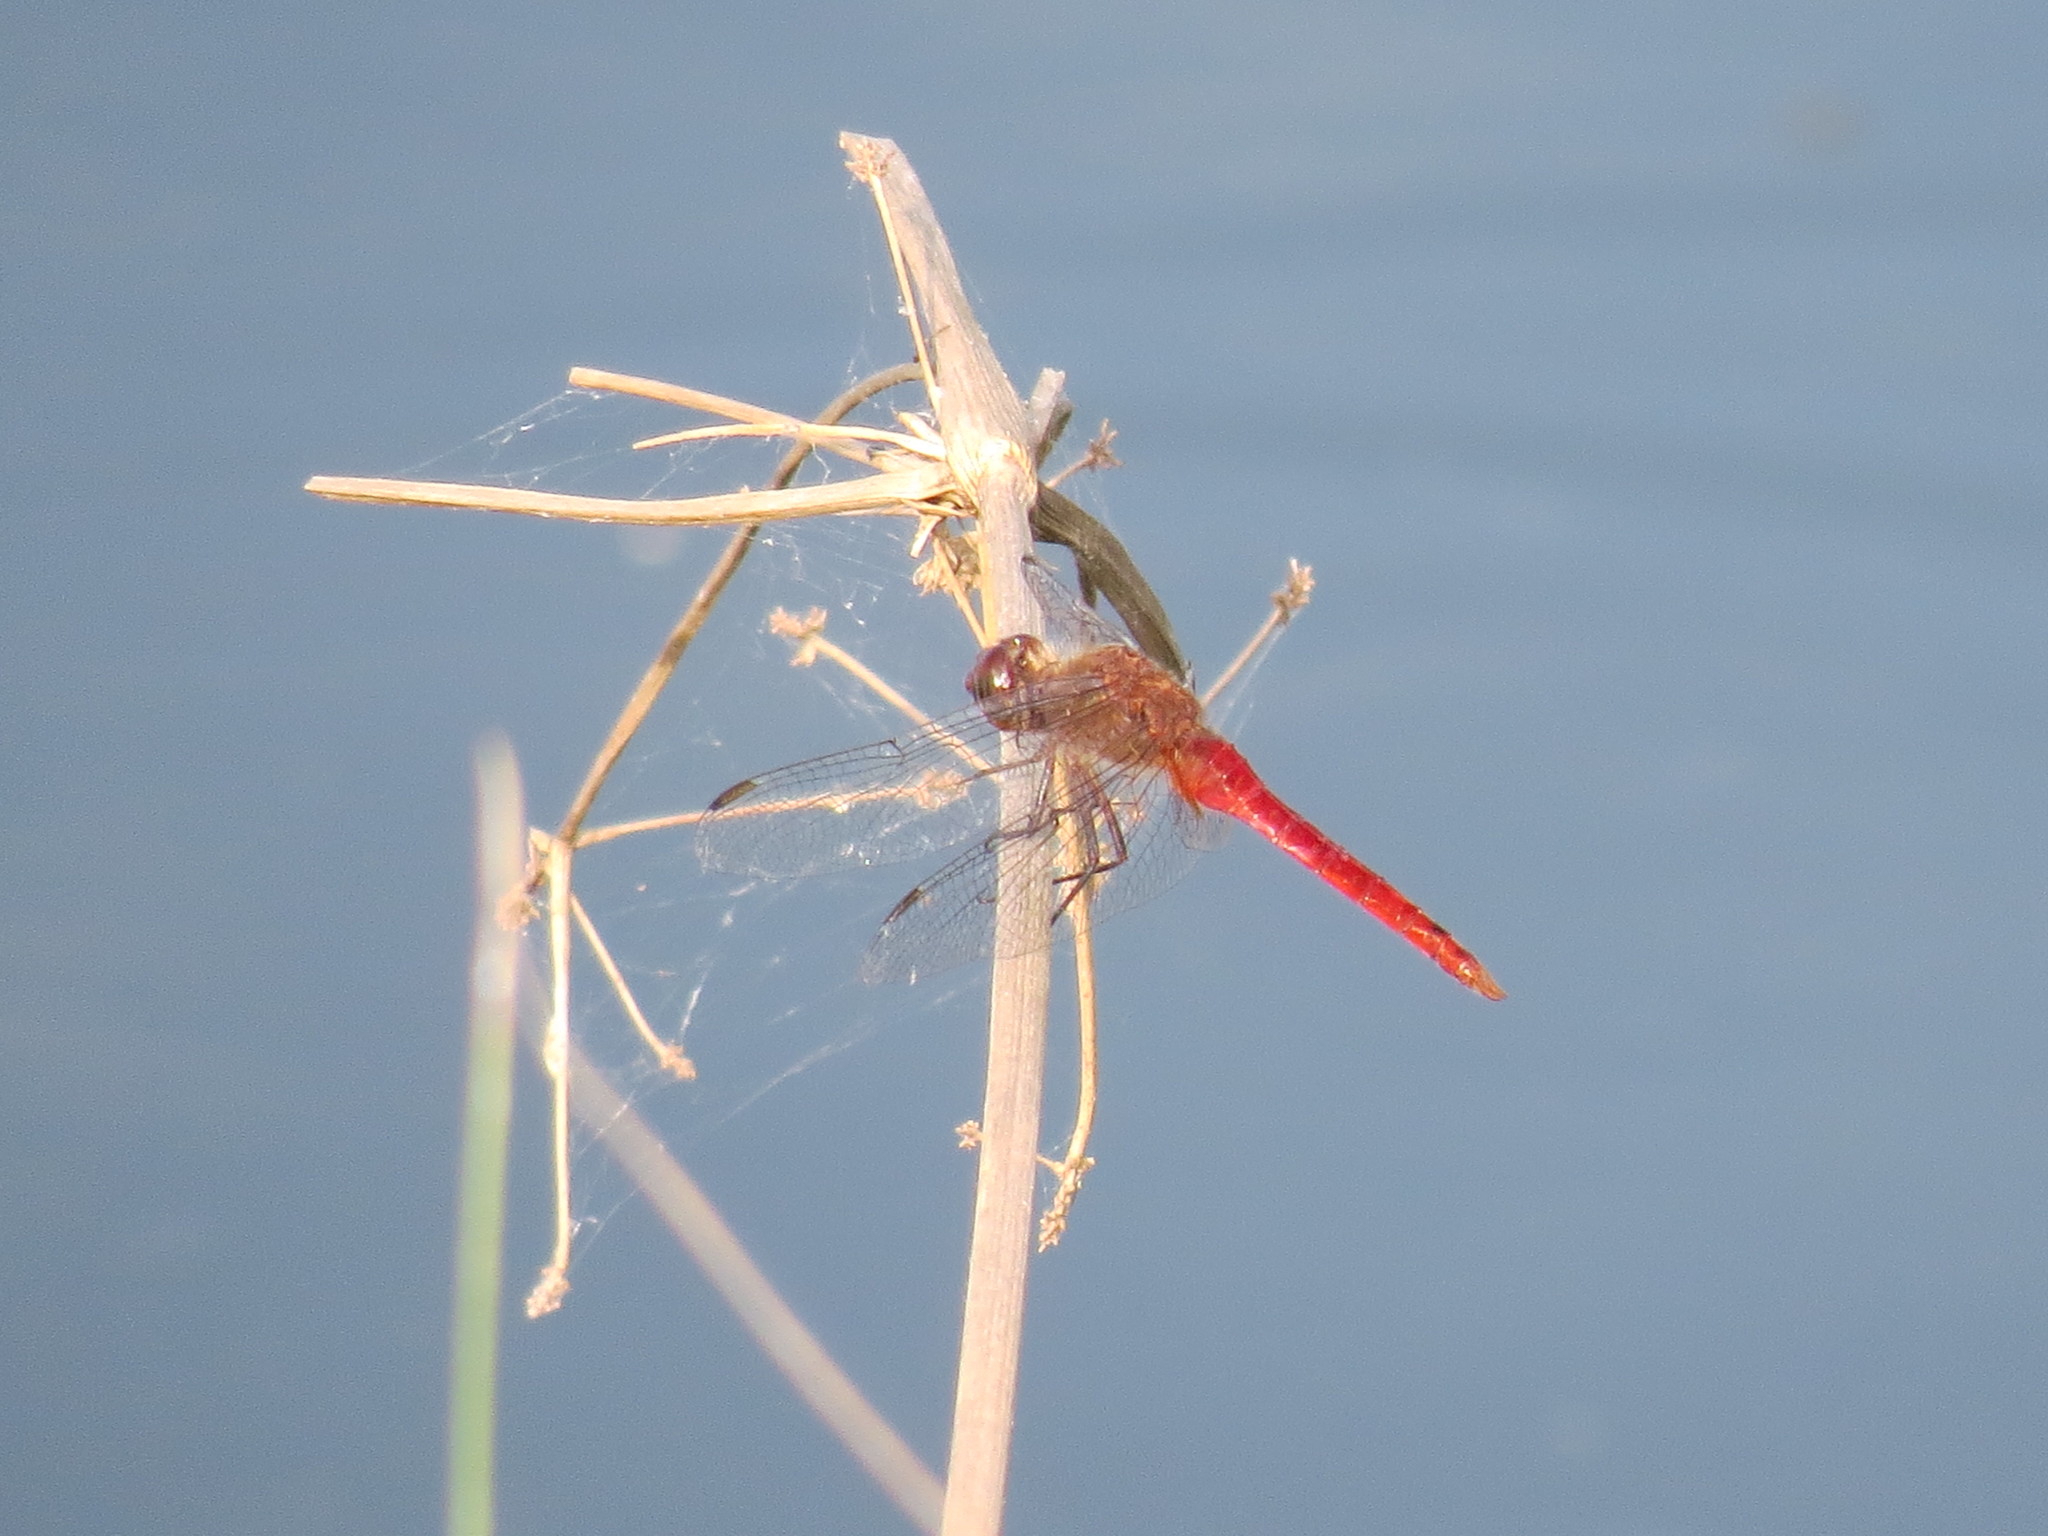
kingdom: Animalia
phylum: Arthropoda
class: Insecta
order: Odonata
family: Libellulidae
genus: Brachymesia
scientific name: Brachymesia furcata
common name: Red-taled pennant
